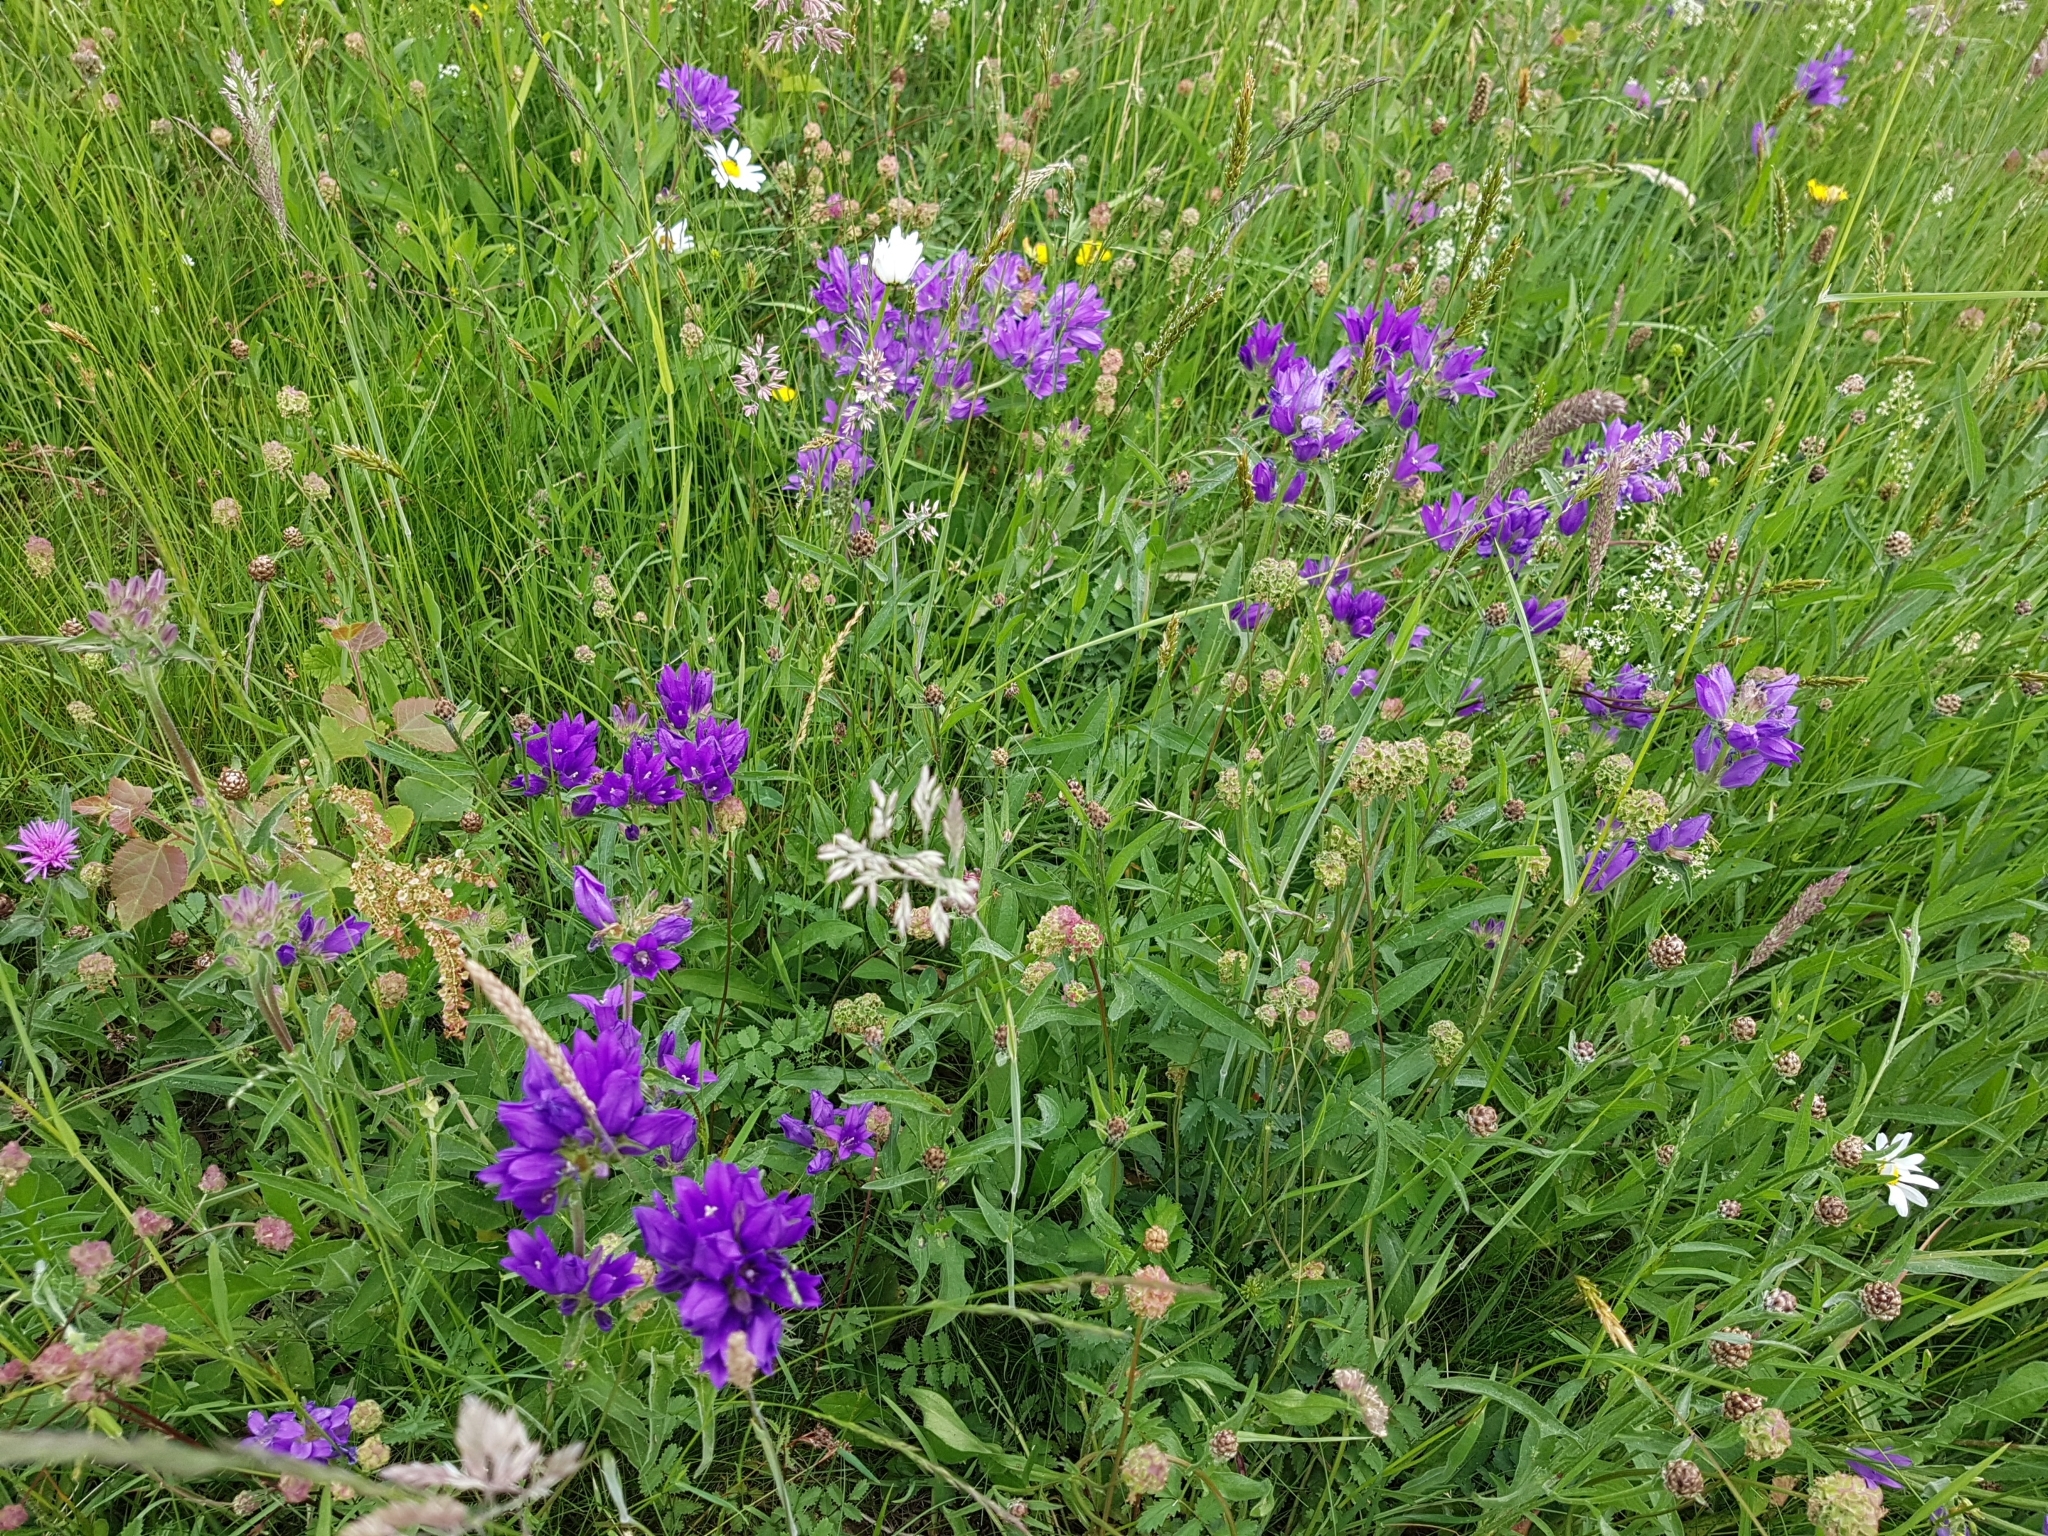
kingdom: Plantae
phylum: Tracheophyta
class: Magnoliopsida
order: Asterales
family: Campanulaceae
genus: Campanula
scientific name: Campanula glomerata
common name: Clustered bellflower
